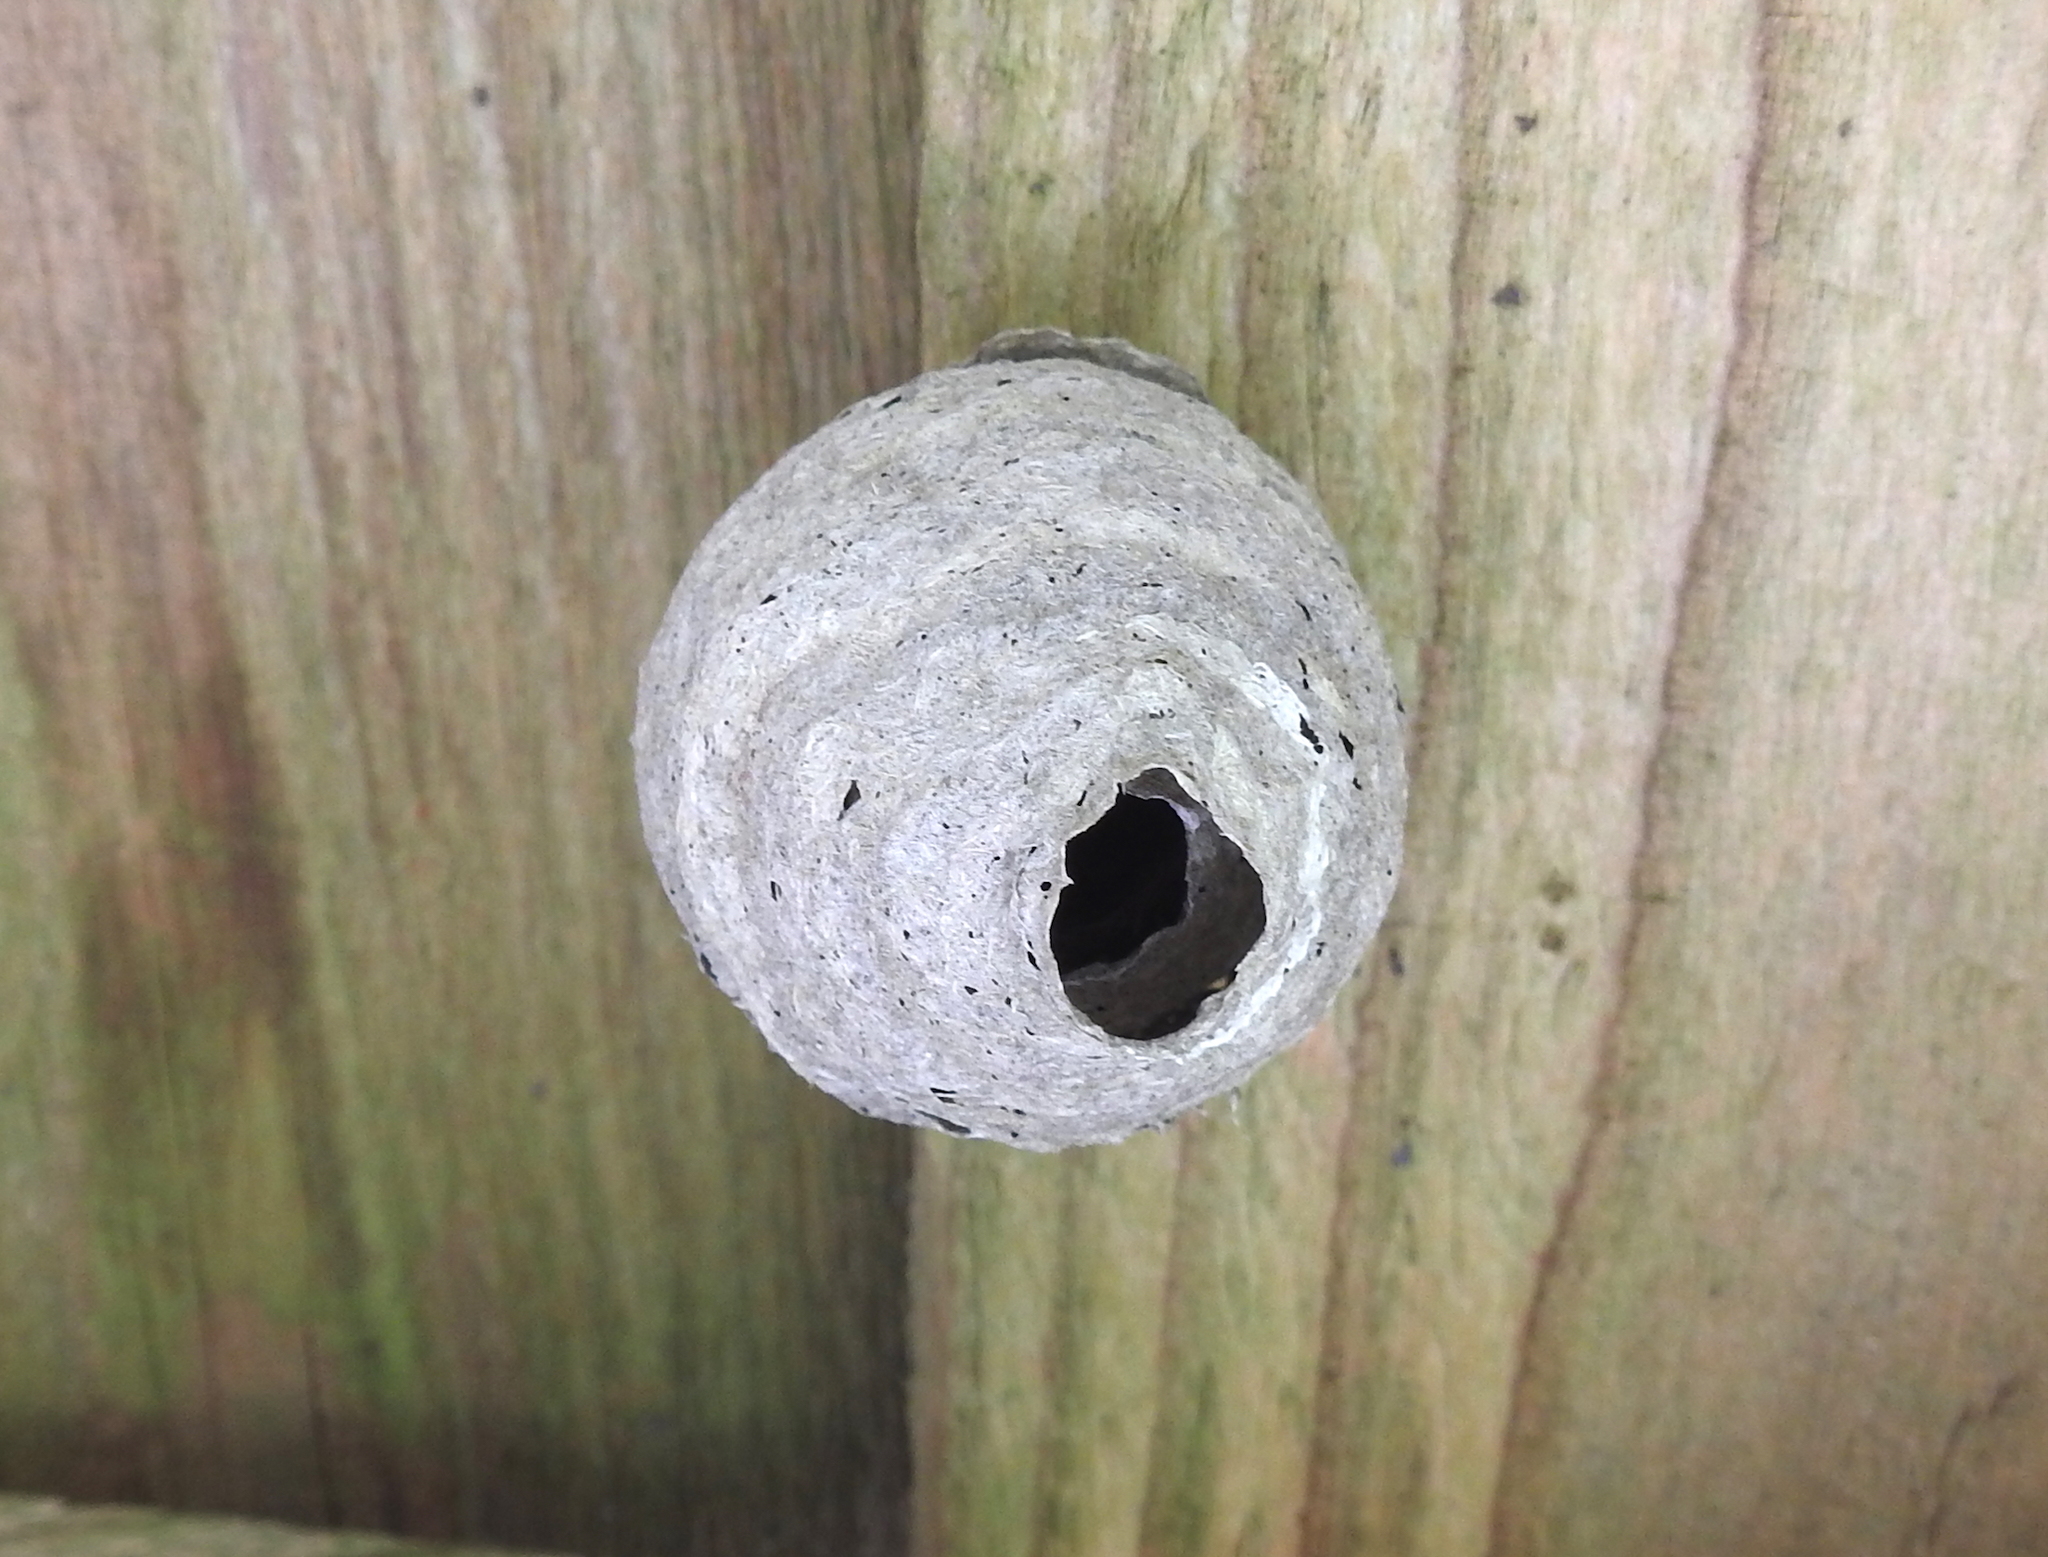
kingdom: Animalia
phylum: Arthropoda
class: Insecta
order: Hymenoptera
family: Vespidae
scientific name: Vespidae
